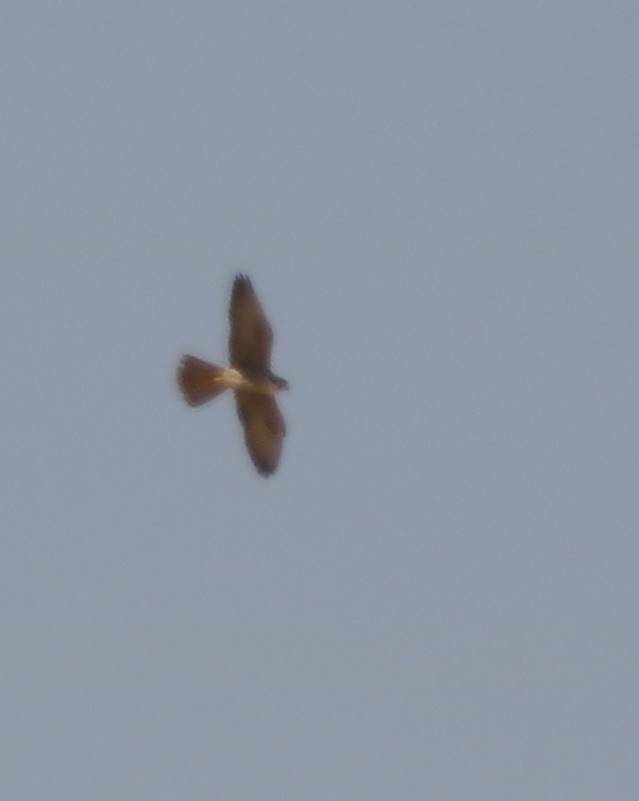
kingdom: Animalia
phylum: Chordata
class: Aves
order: Falconiformes
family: Falconidae
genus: Falco
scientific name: Falco biarmicus
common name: Lanner falcon
